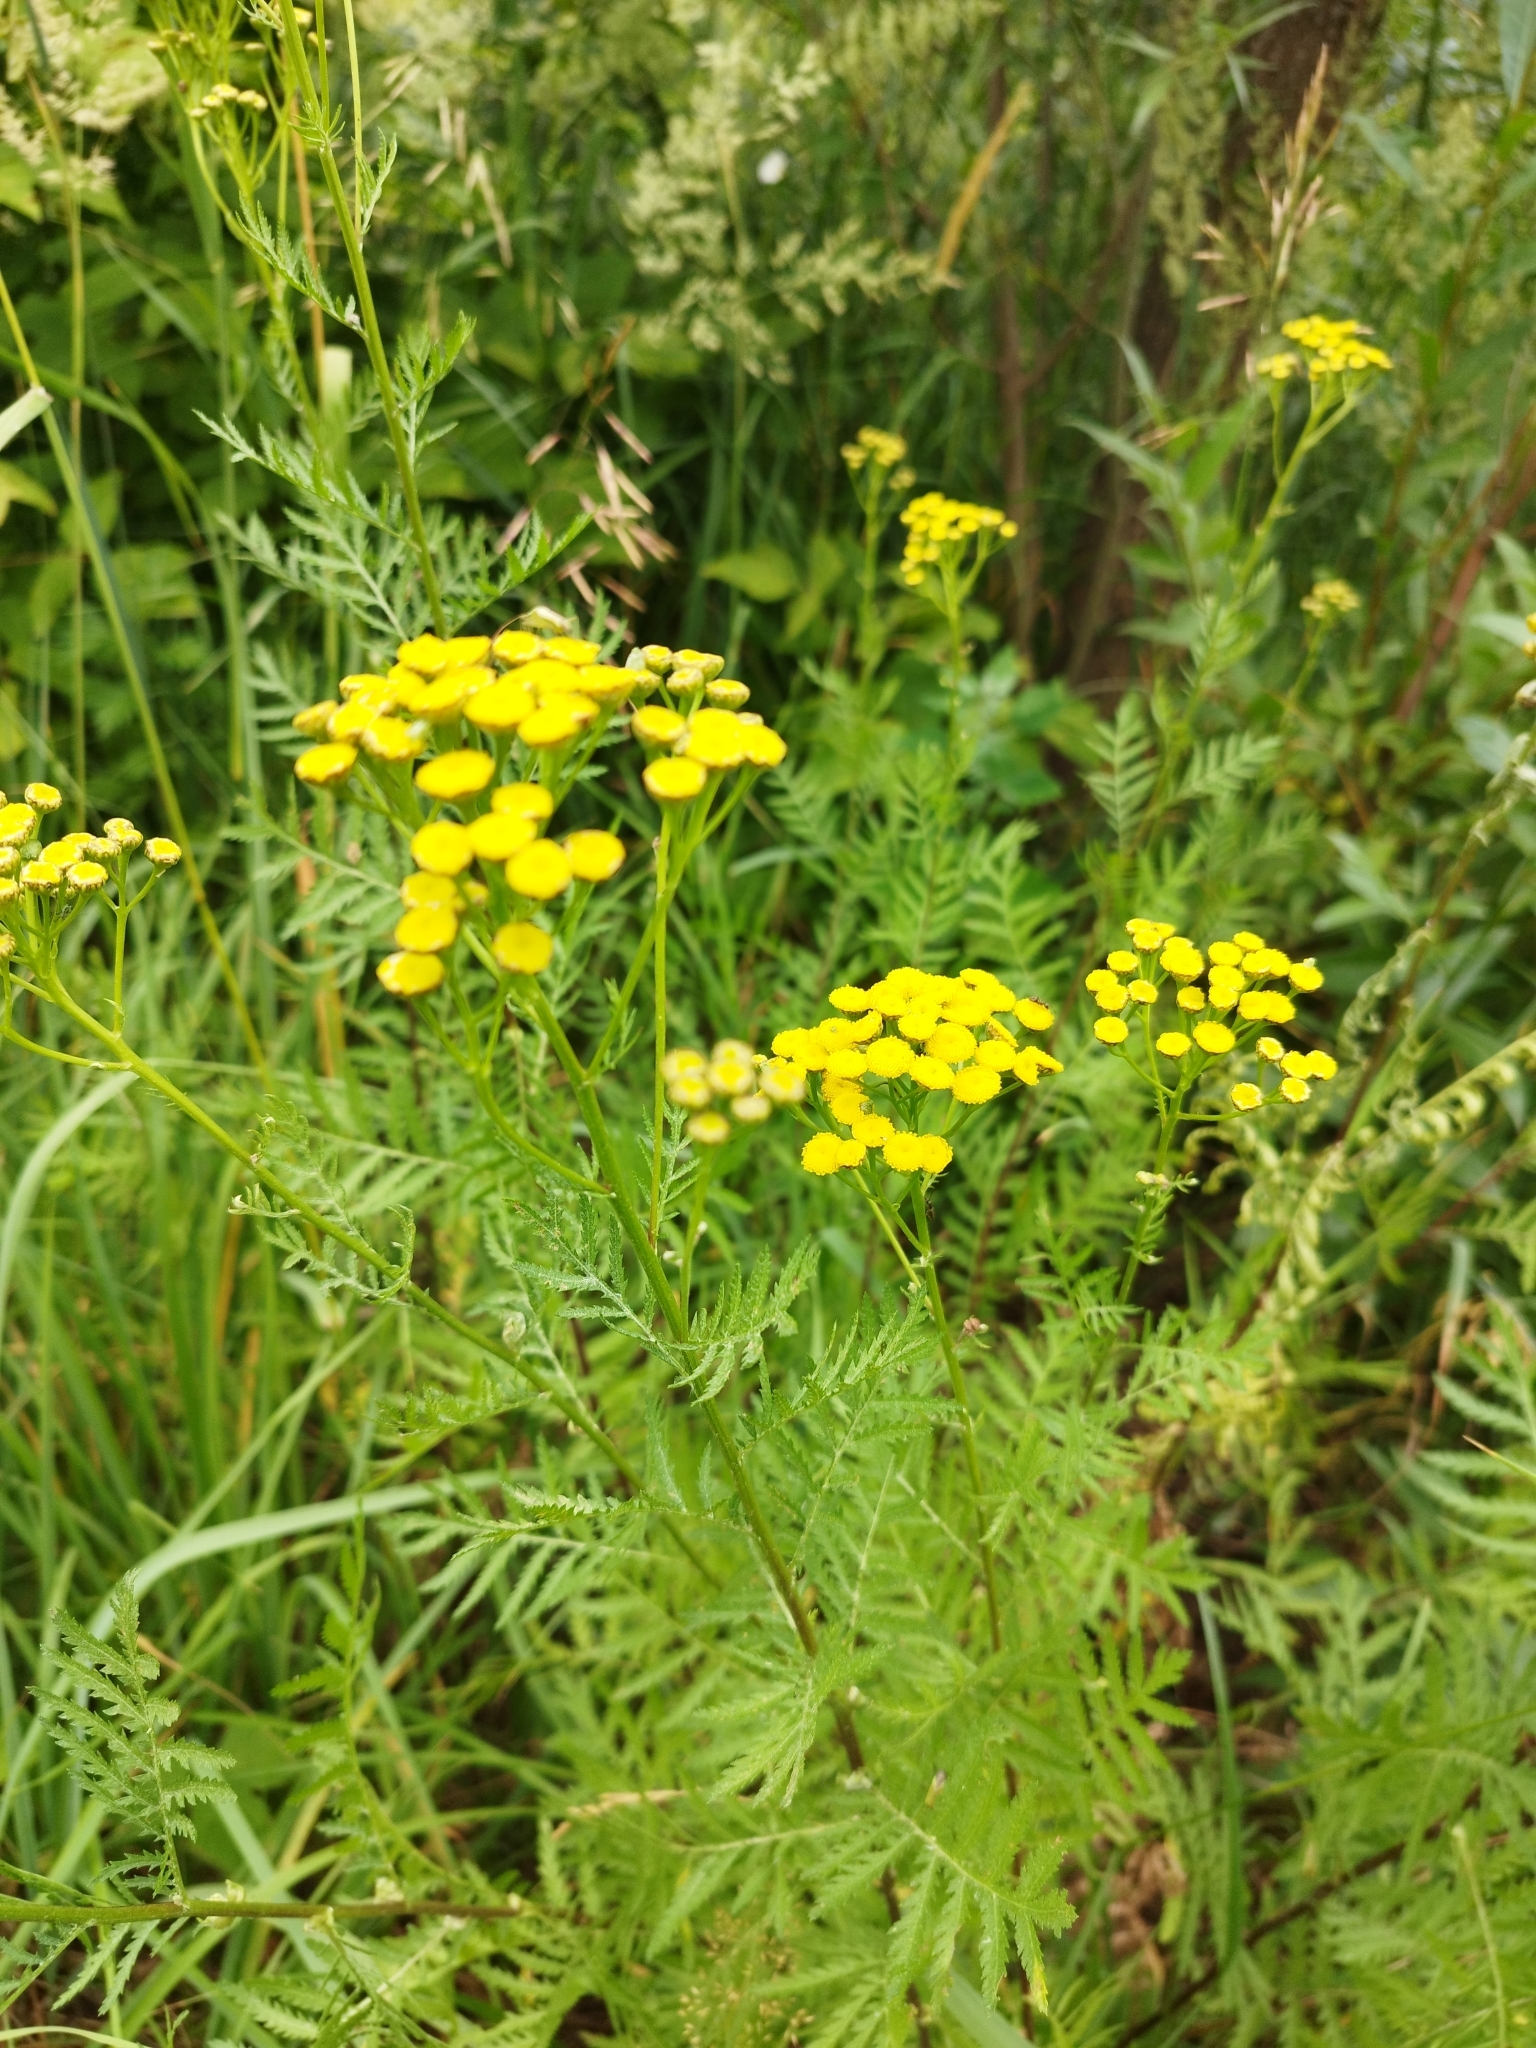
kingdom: Plantae
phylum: Tracheophyta
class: Magnoliopsida
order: Asterales
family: Asteraceae
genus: Tanacetum
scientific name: Tanacetum vulgare
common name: Common tansy
